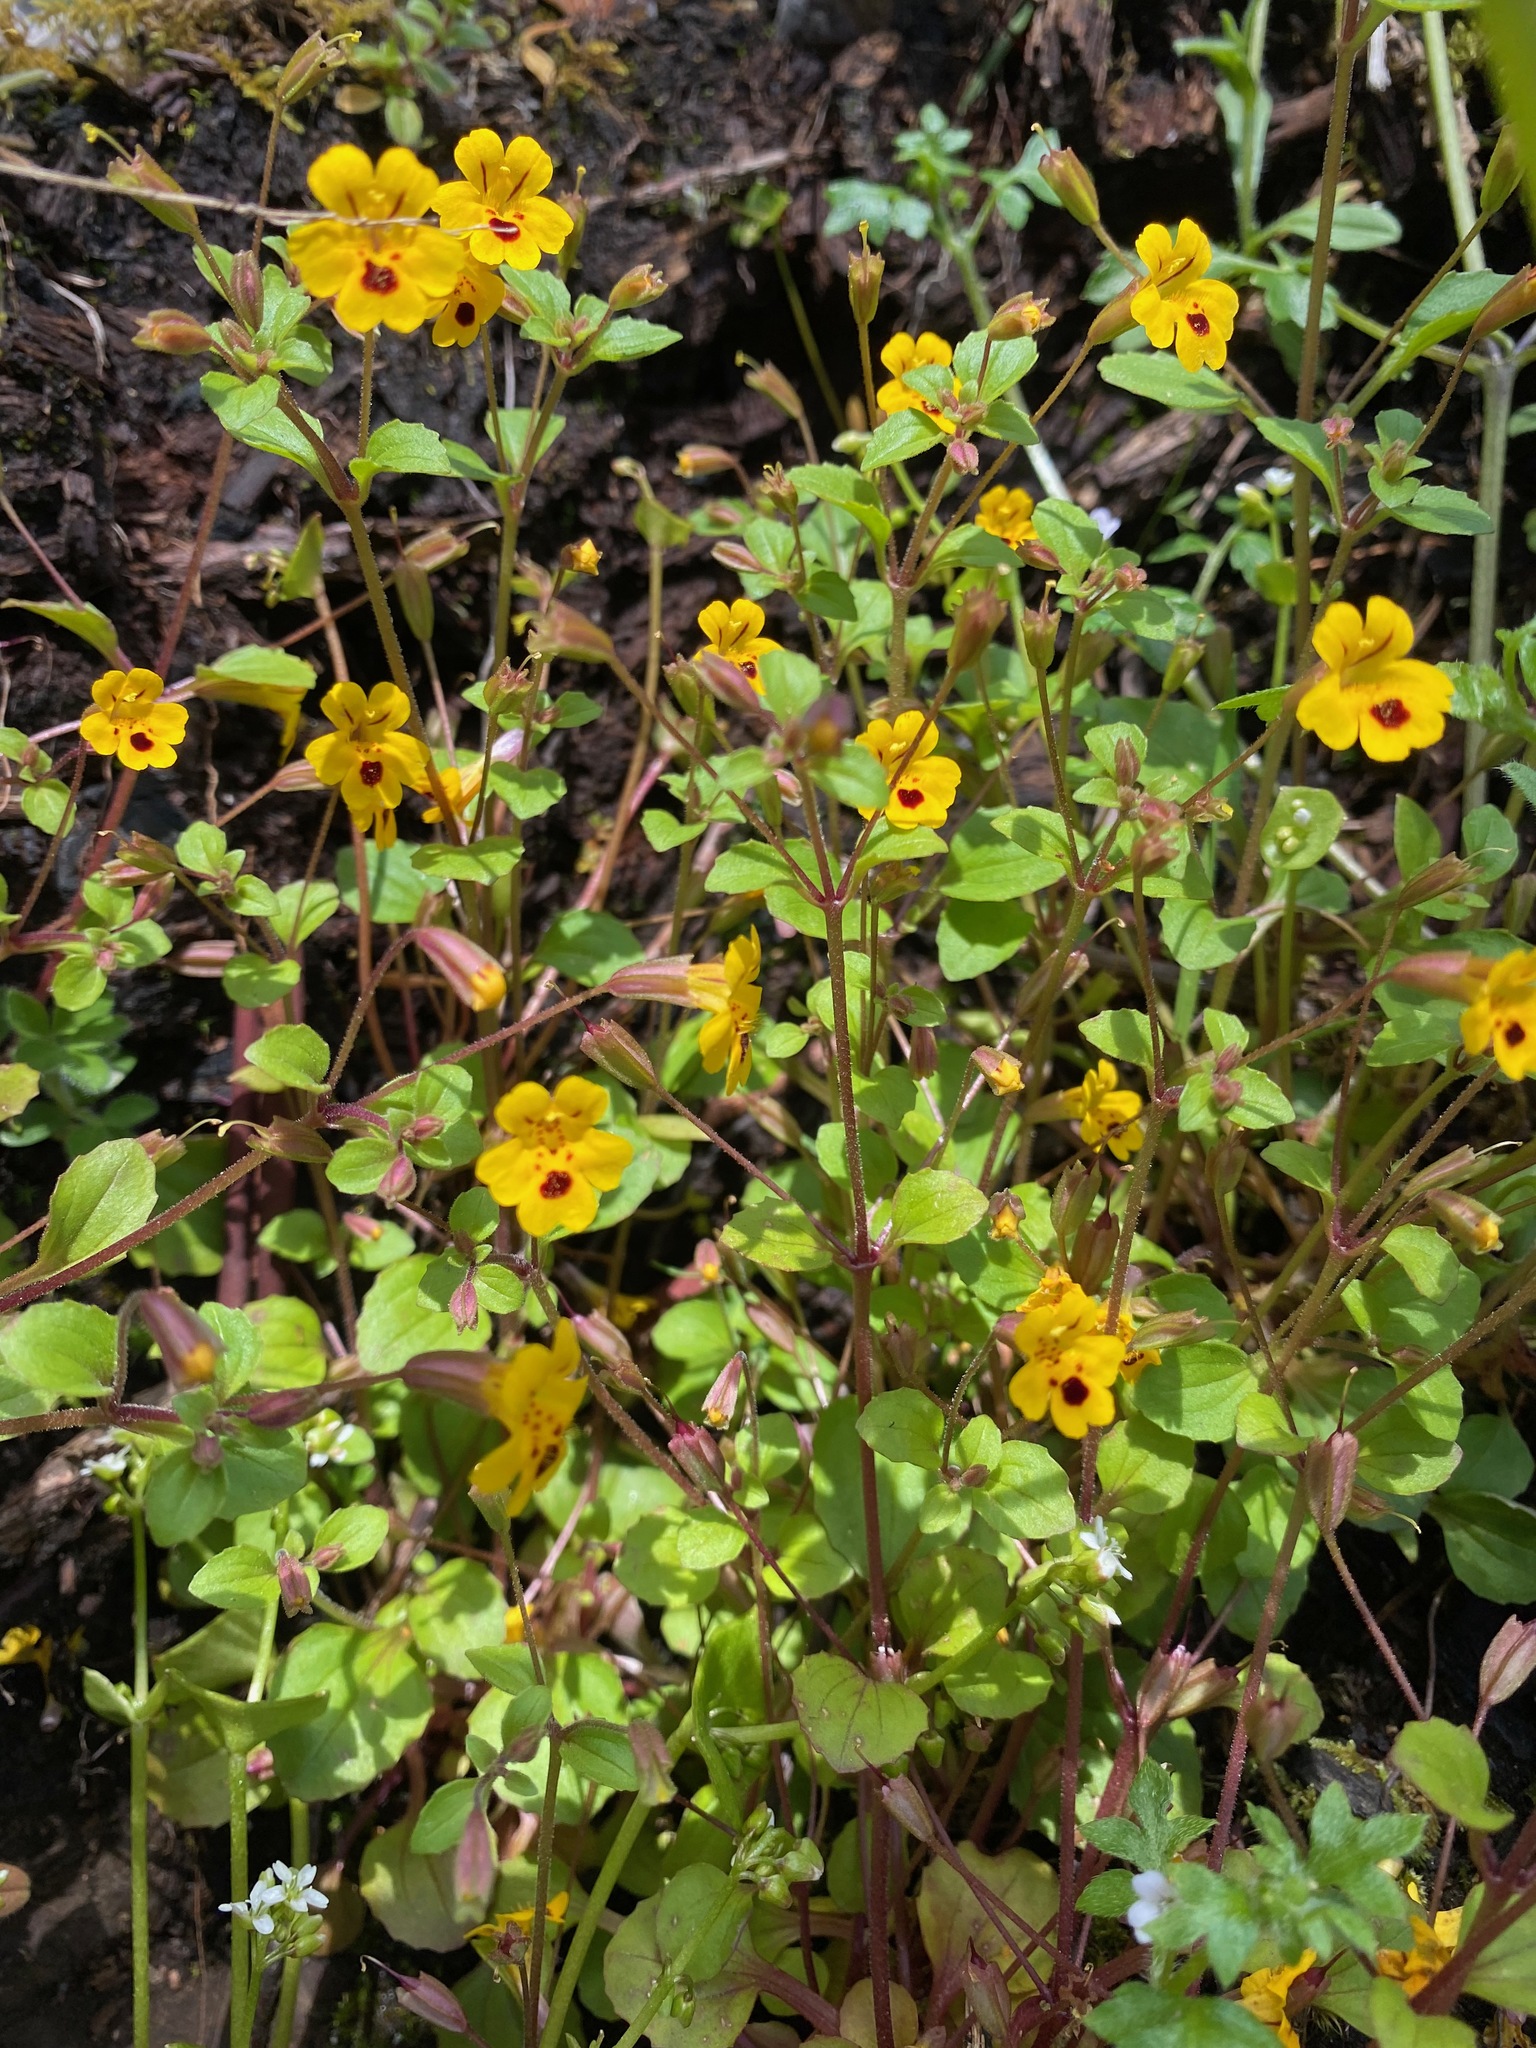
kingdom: Plantae
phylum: Tracheophyta
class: Magnoliopsida
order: Lamiales
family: Phrymaceae
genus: Erythranthe
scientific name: Erythranthe alsinoides
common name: Chickweed monkeyflower
